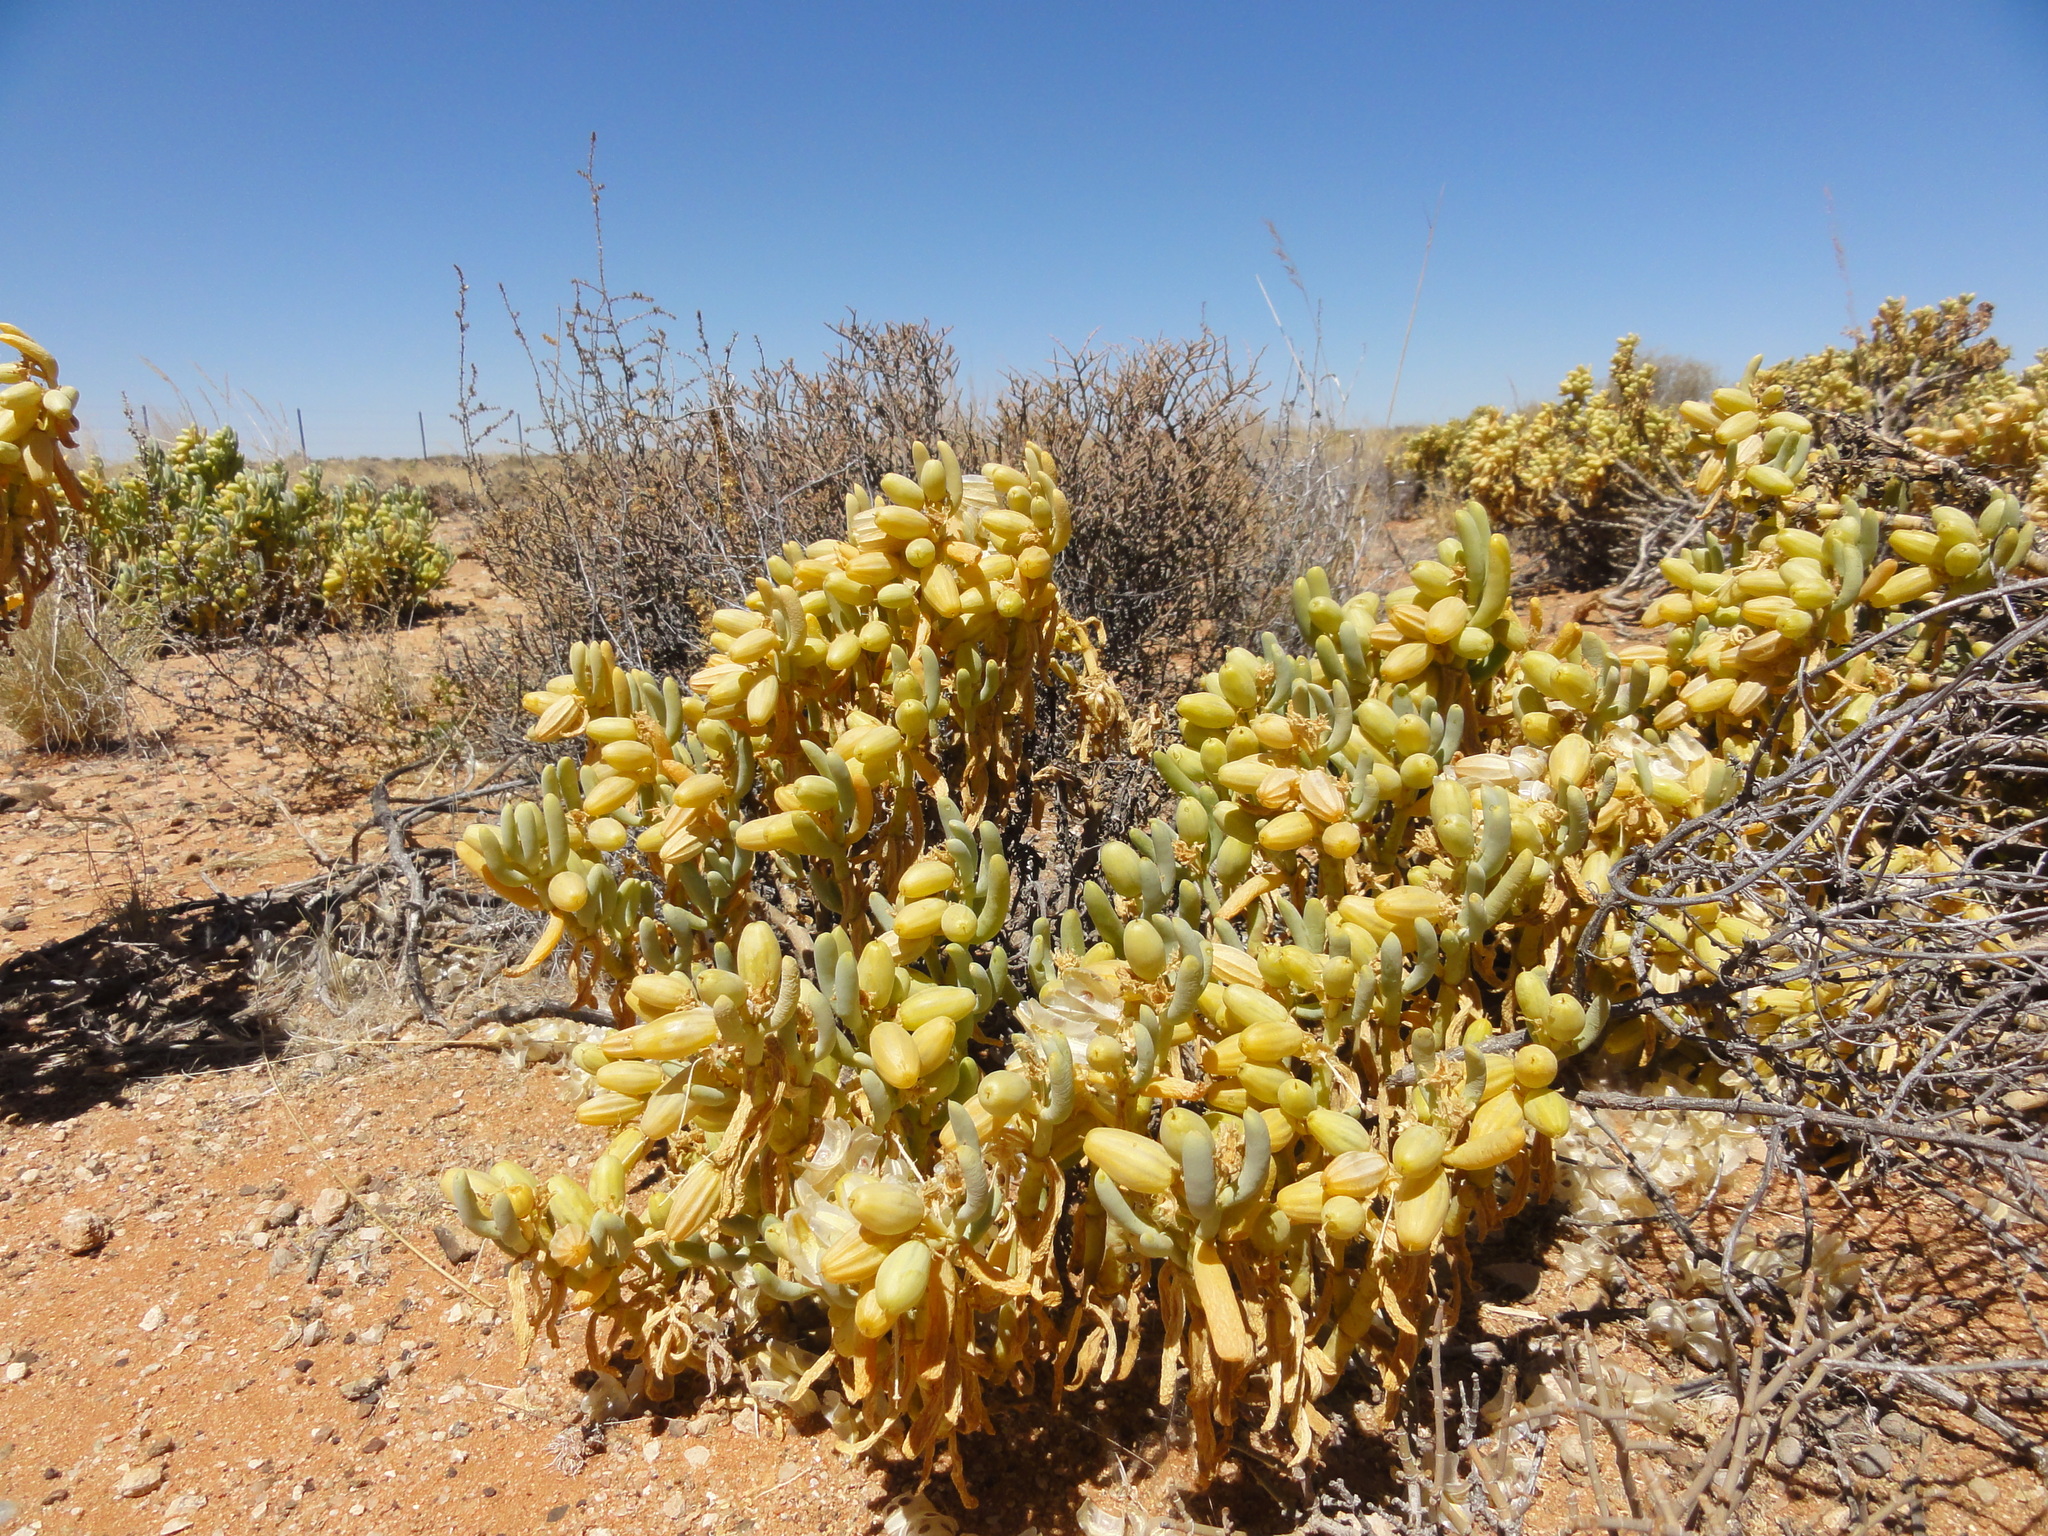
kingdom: Plantae
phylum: Tracheophyta
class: Magnoliopsida
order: Zygophyllales
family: Zygophyllaceae
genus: Augea
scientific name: Augea capensis
